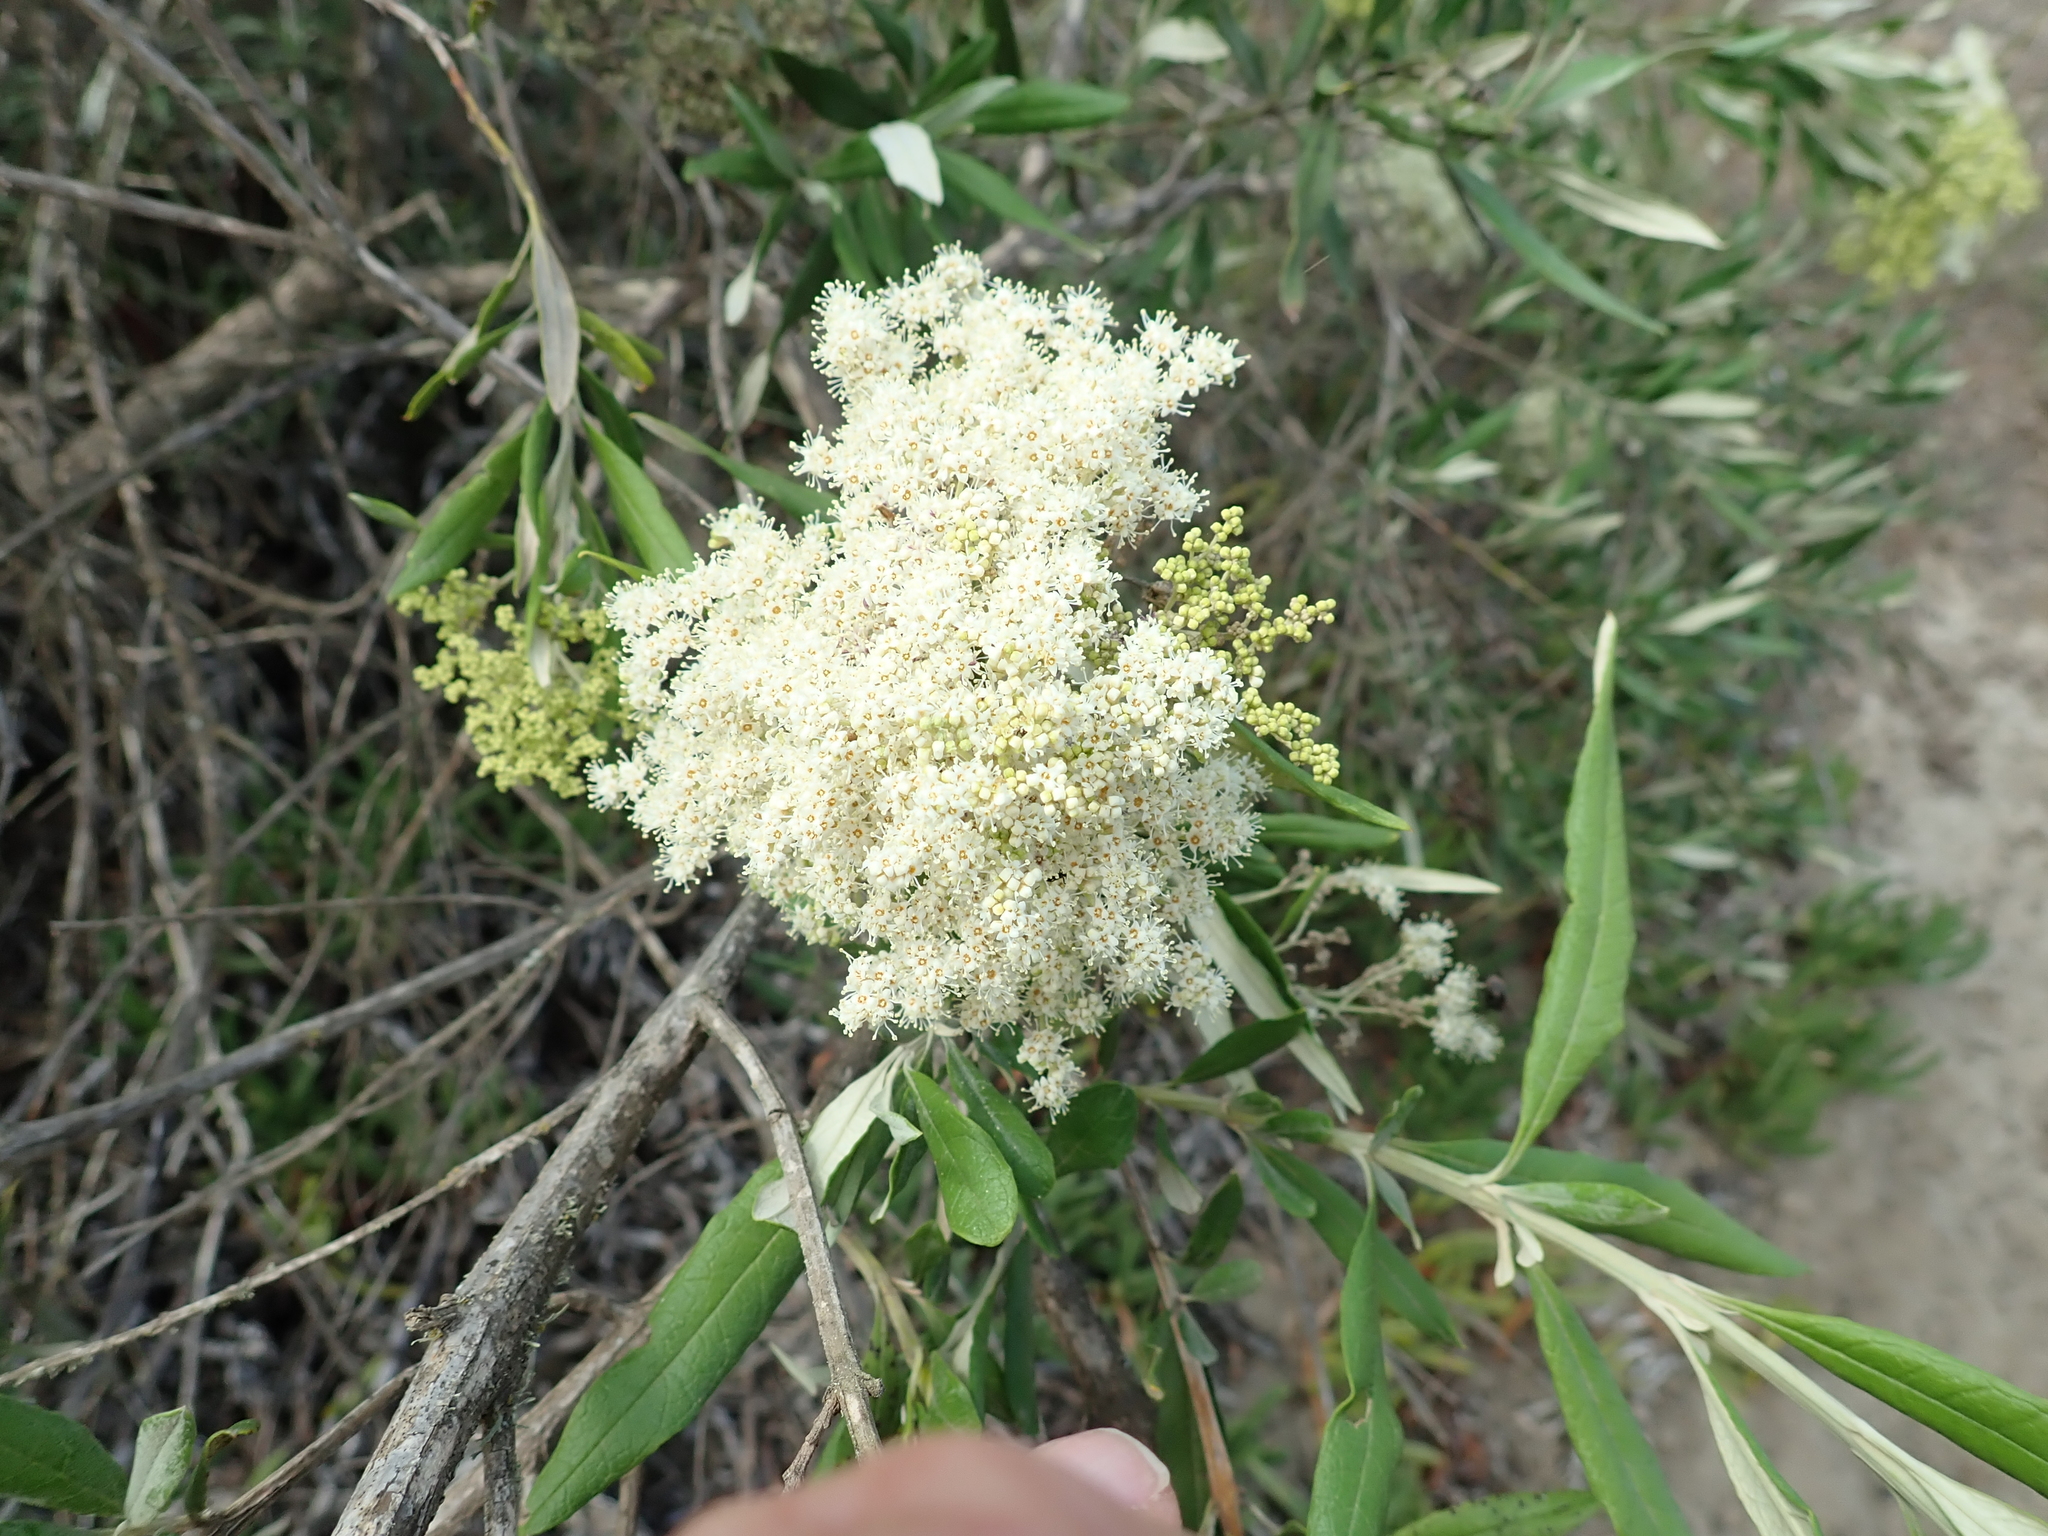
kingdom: Plantae
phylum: Tracheophyta
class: Magnoliopsida
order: Lamiales
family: Scrophulariaceae
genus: Buddleja
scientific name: Buddleja saligna
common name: False olive
